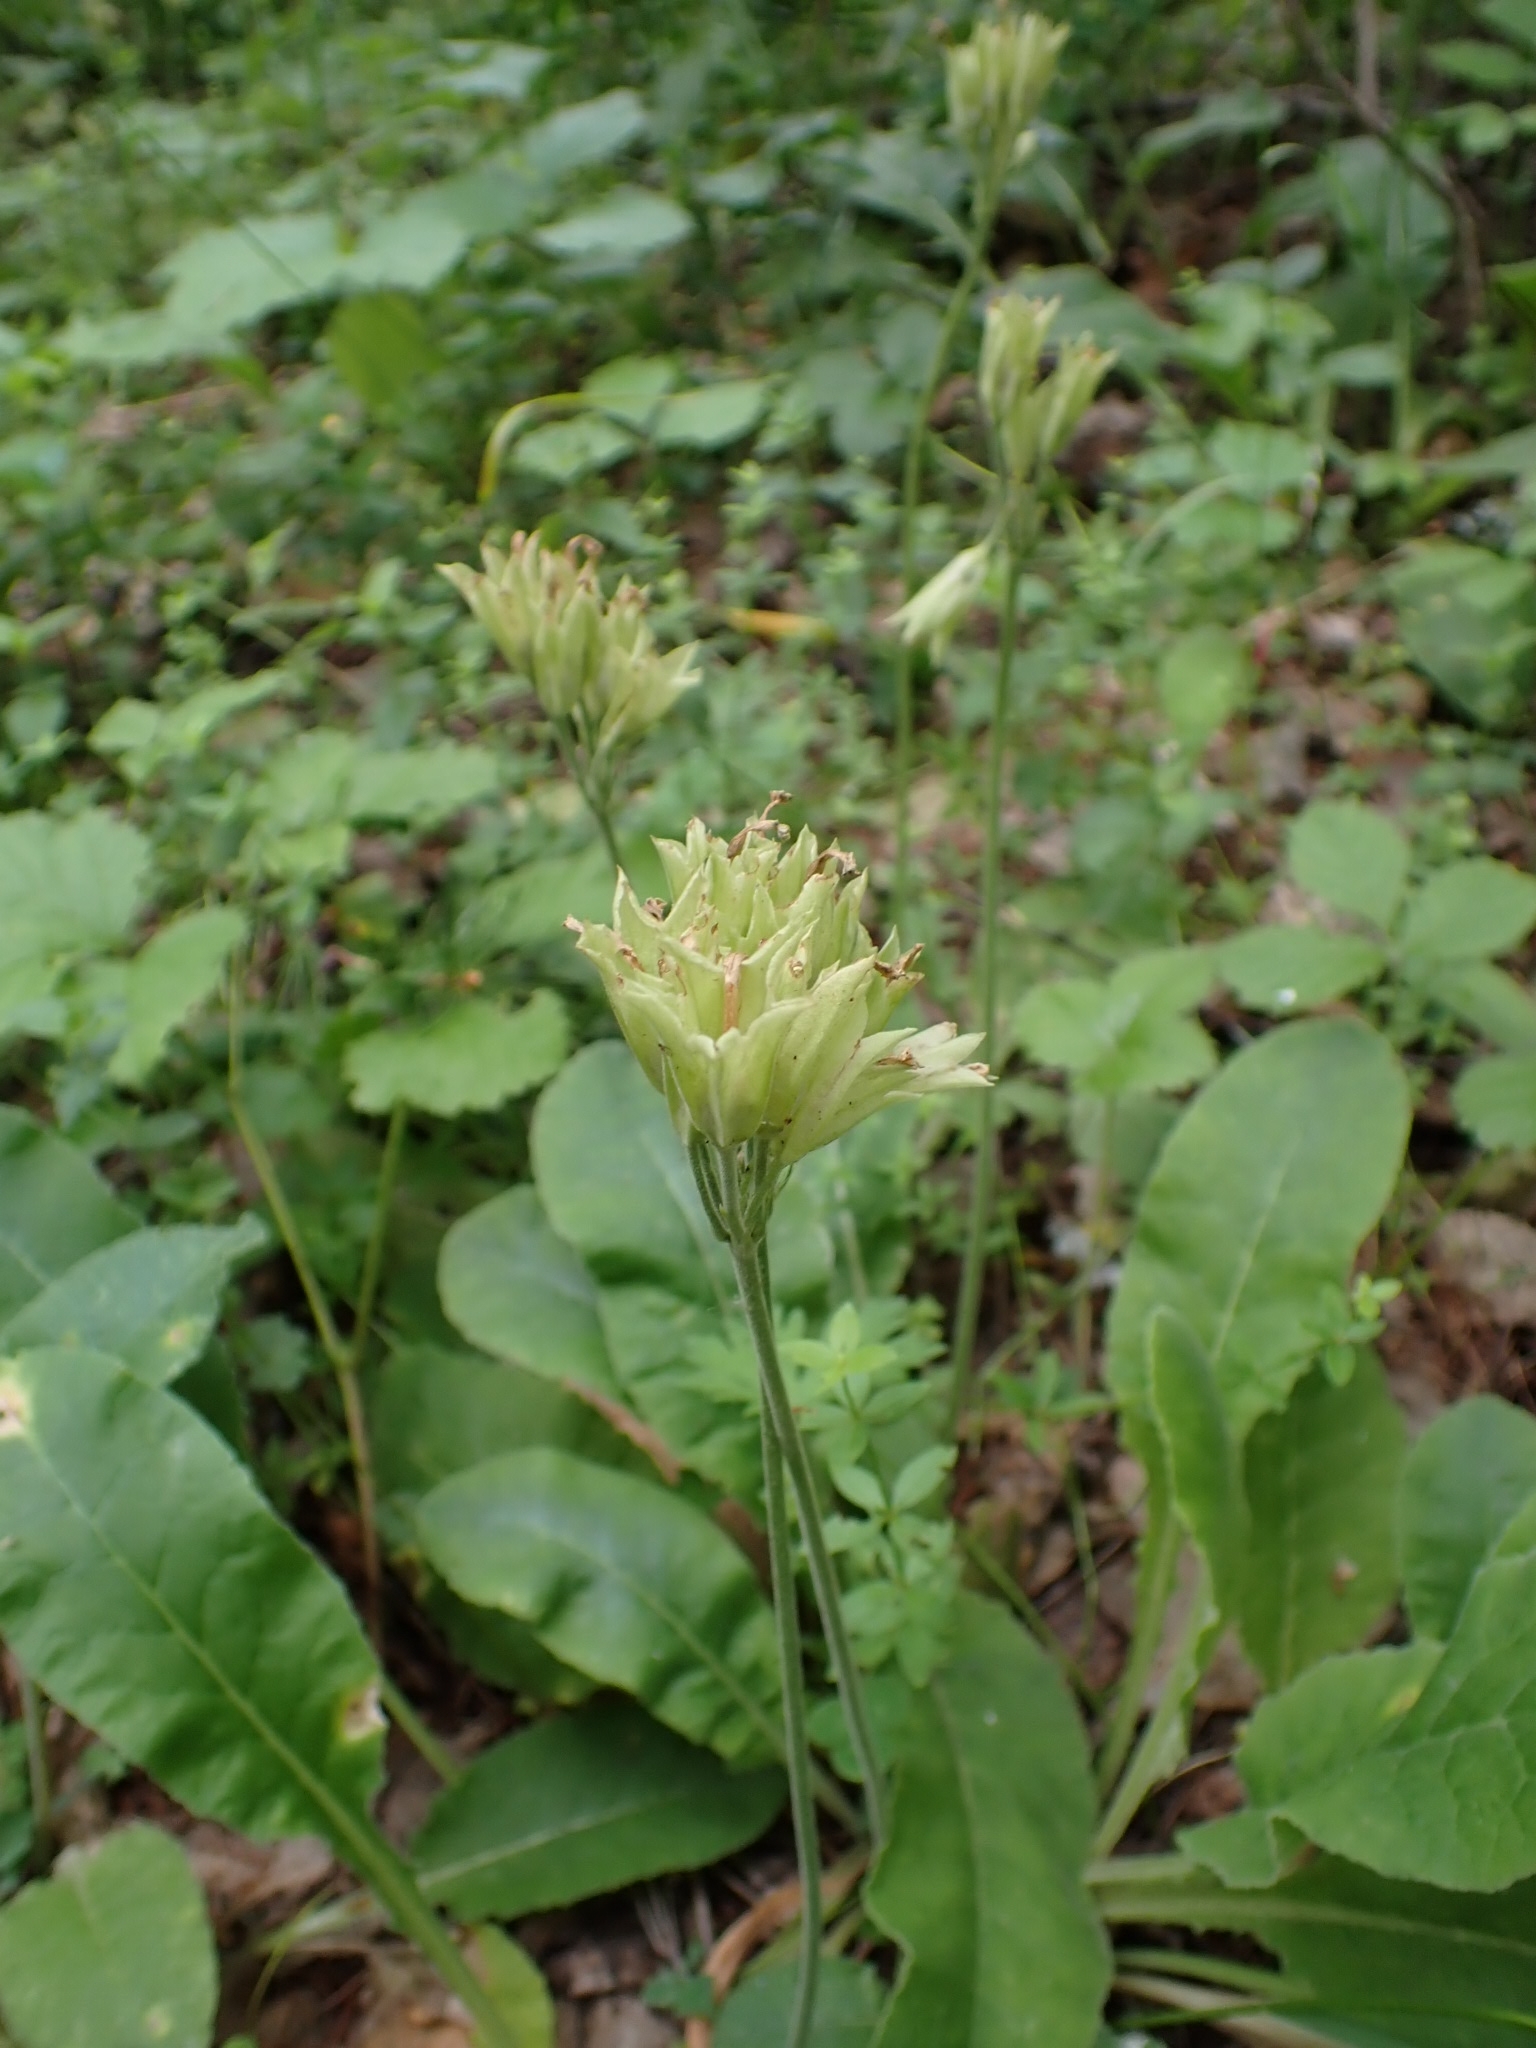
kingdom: Plantae
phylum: Tracheophyta
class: Magnoliopsida
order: Ericales
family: Primulaceae
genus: Primula
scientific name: Primula veris
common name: Cowslip
